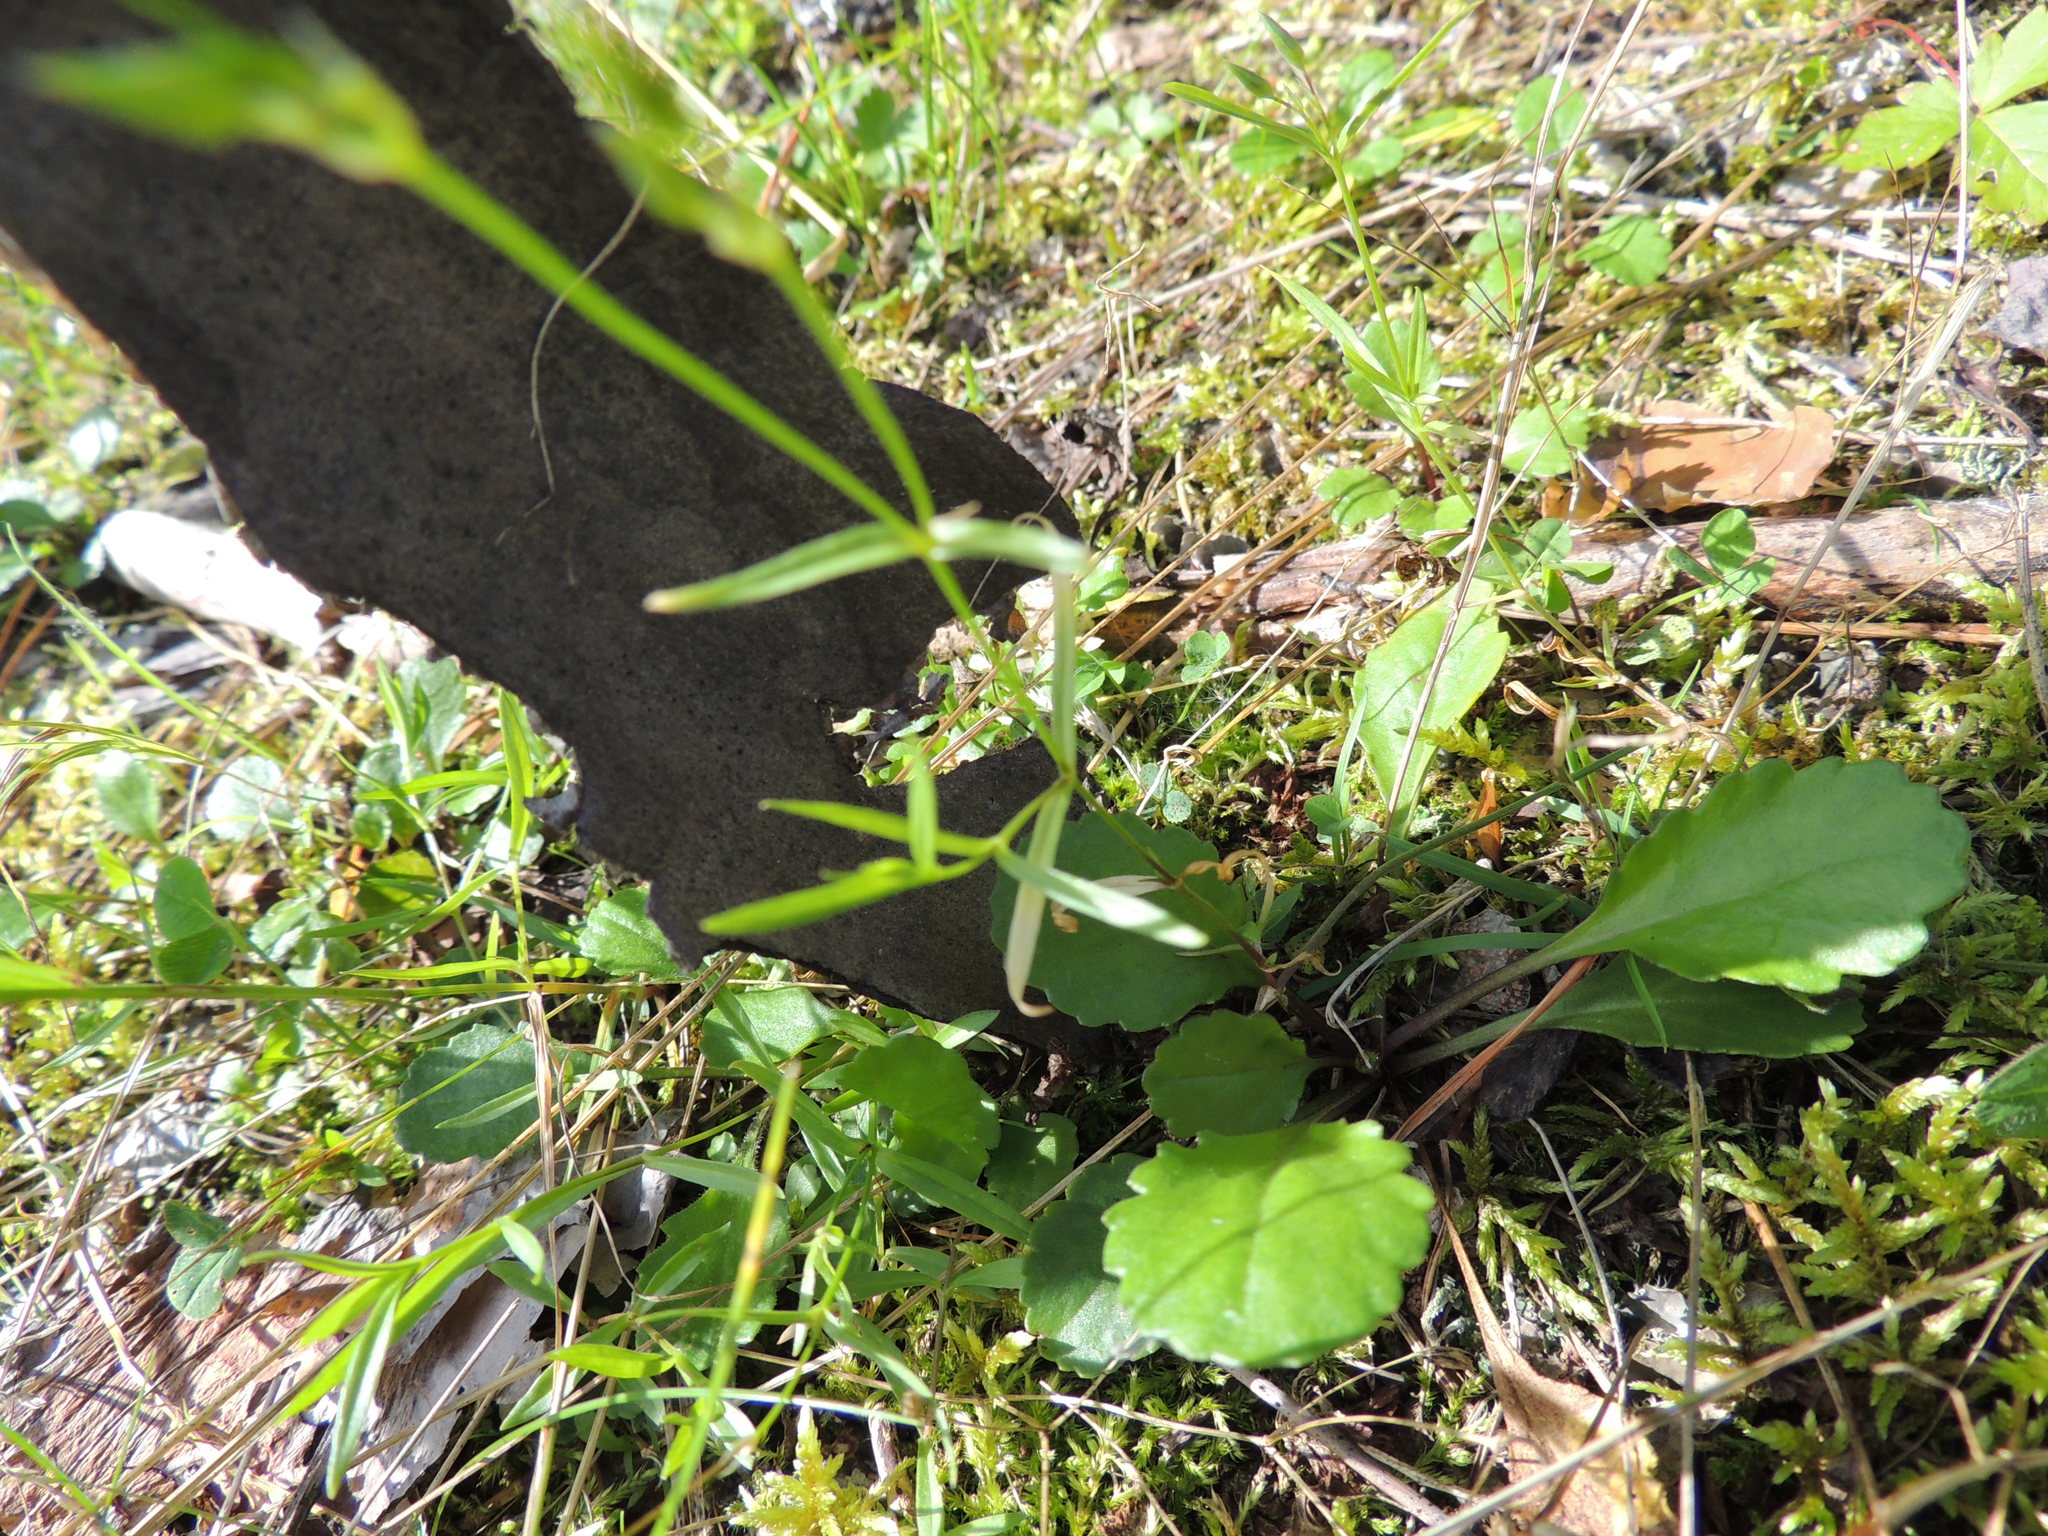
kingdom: Plantae
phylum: Tracheophyta
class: Magnoliopsida
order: Caryophyllales
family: Caryophyllaceae
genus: Stellaria
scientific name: Stellaria graminea
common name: Grass-like starwort
